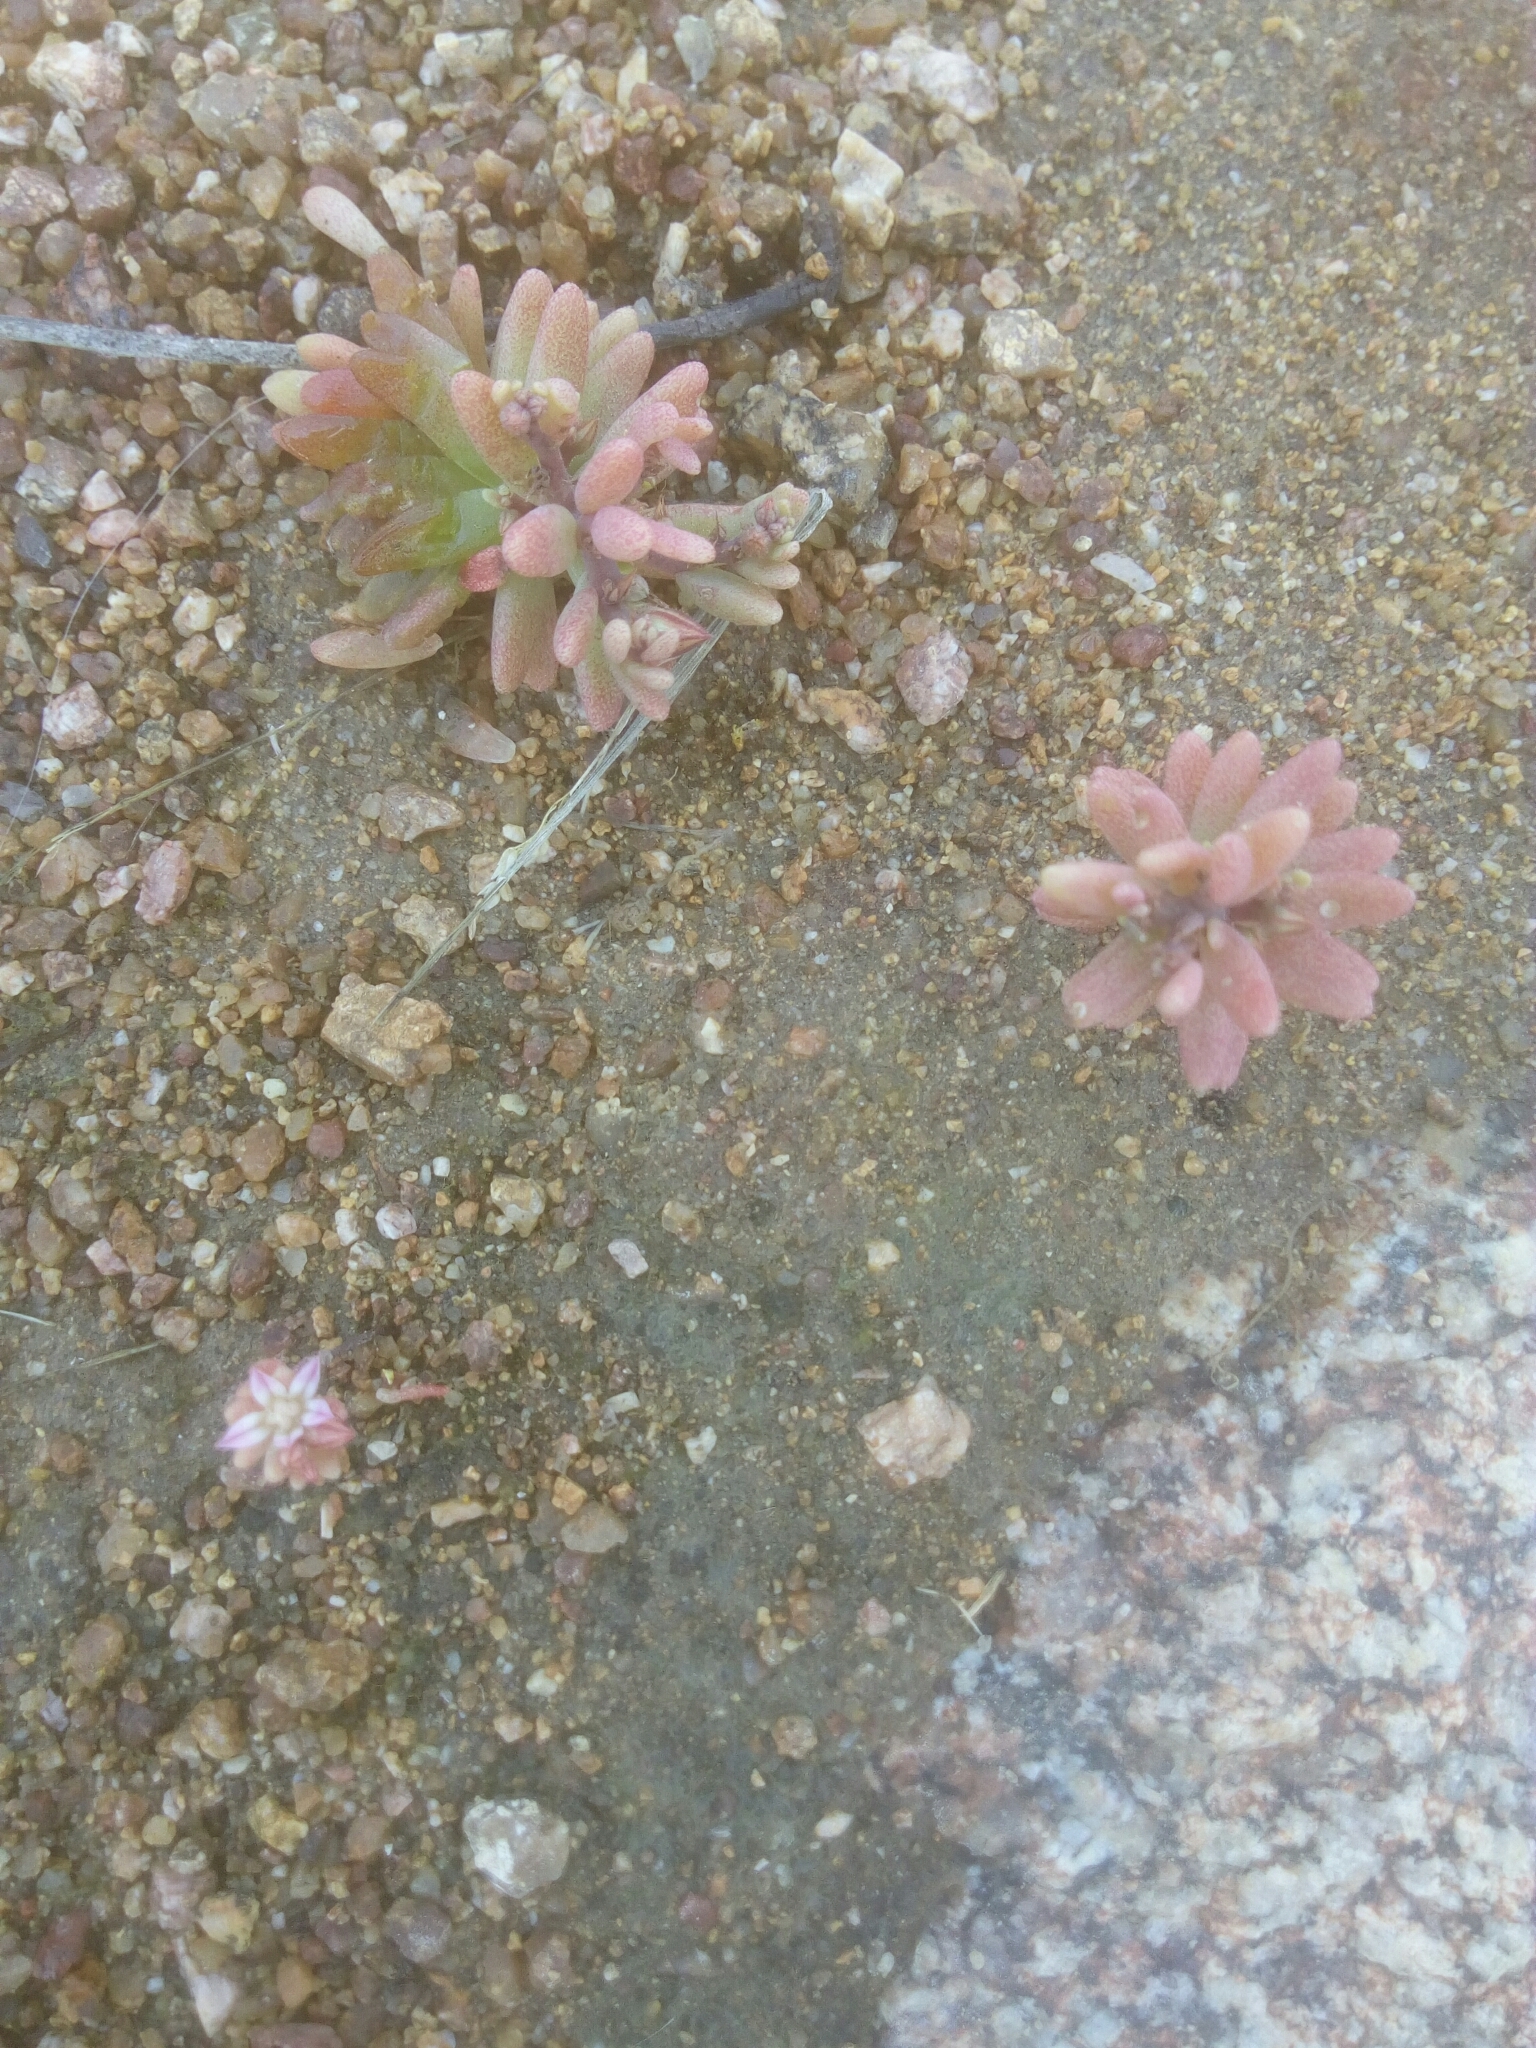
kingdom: Plantae
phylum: Tracheophyta
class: Magnoliopsida
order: Saxifragales
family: Crassulaceae
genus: Sedum
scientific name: Sedum rubens
